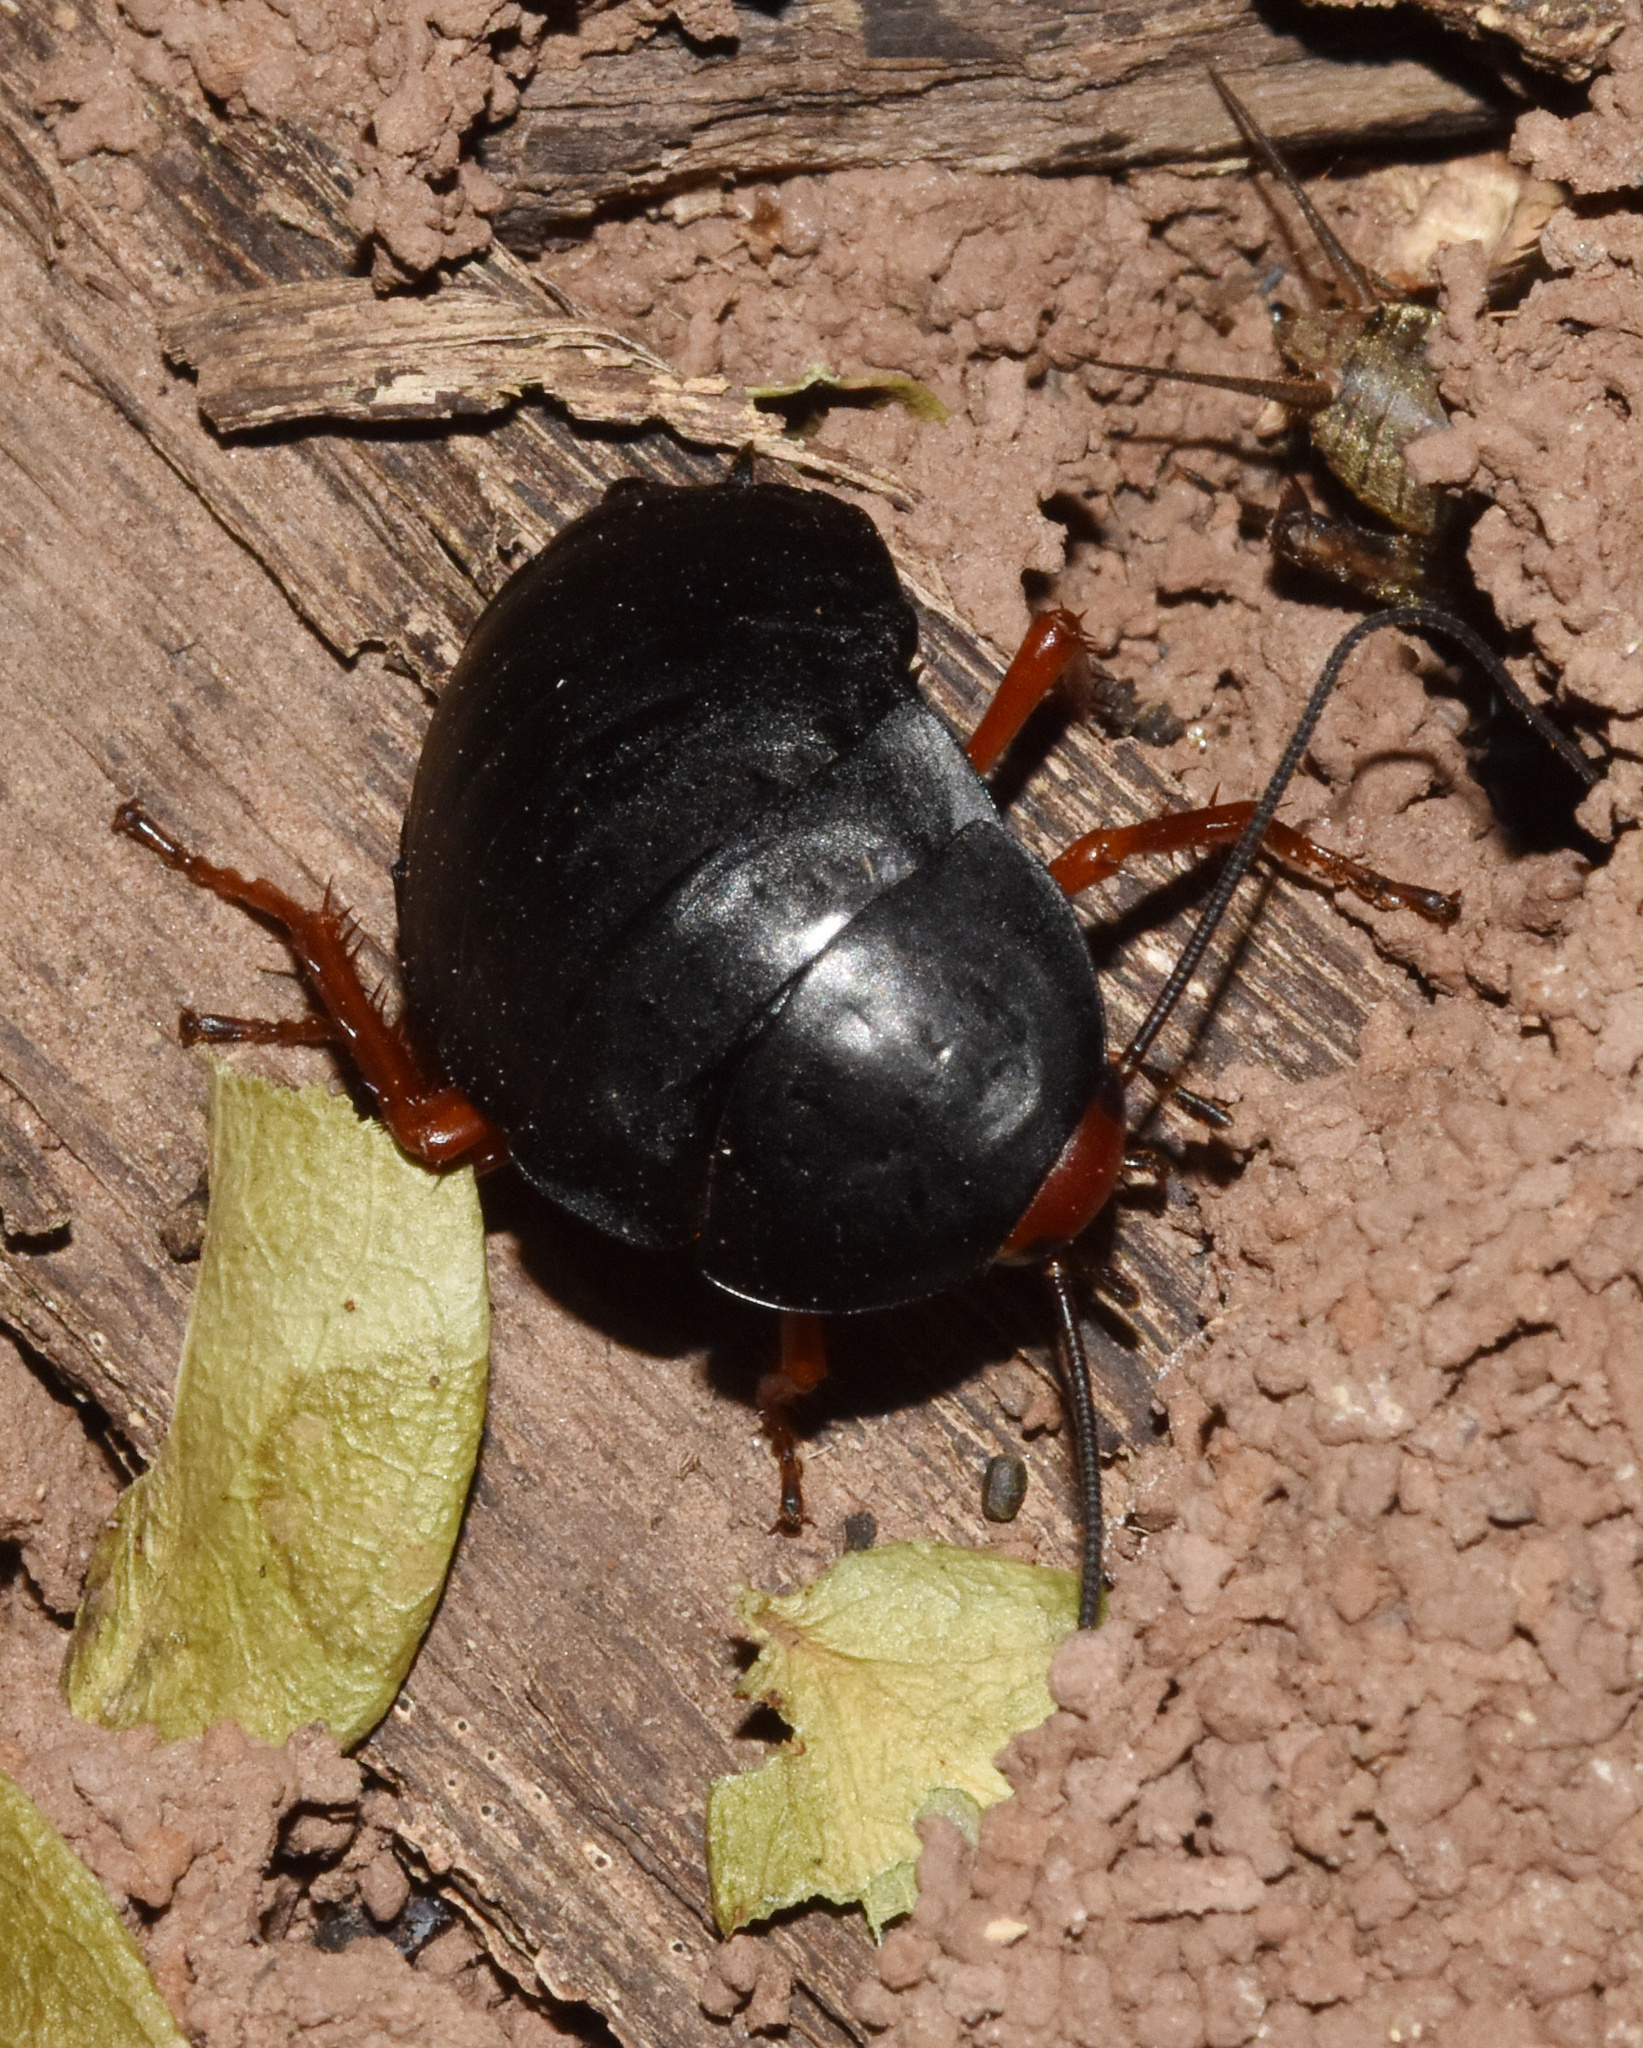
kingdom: Animalia
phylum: Arthropoda
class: Insecta
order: Blattodea
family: Blattidae
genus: Deropeltis
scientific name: Deropeltis erythrocephala
